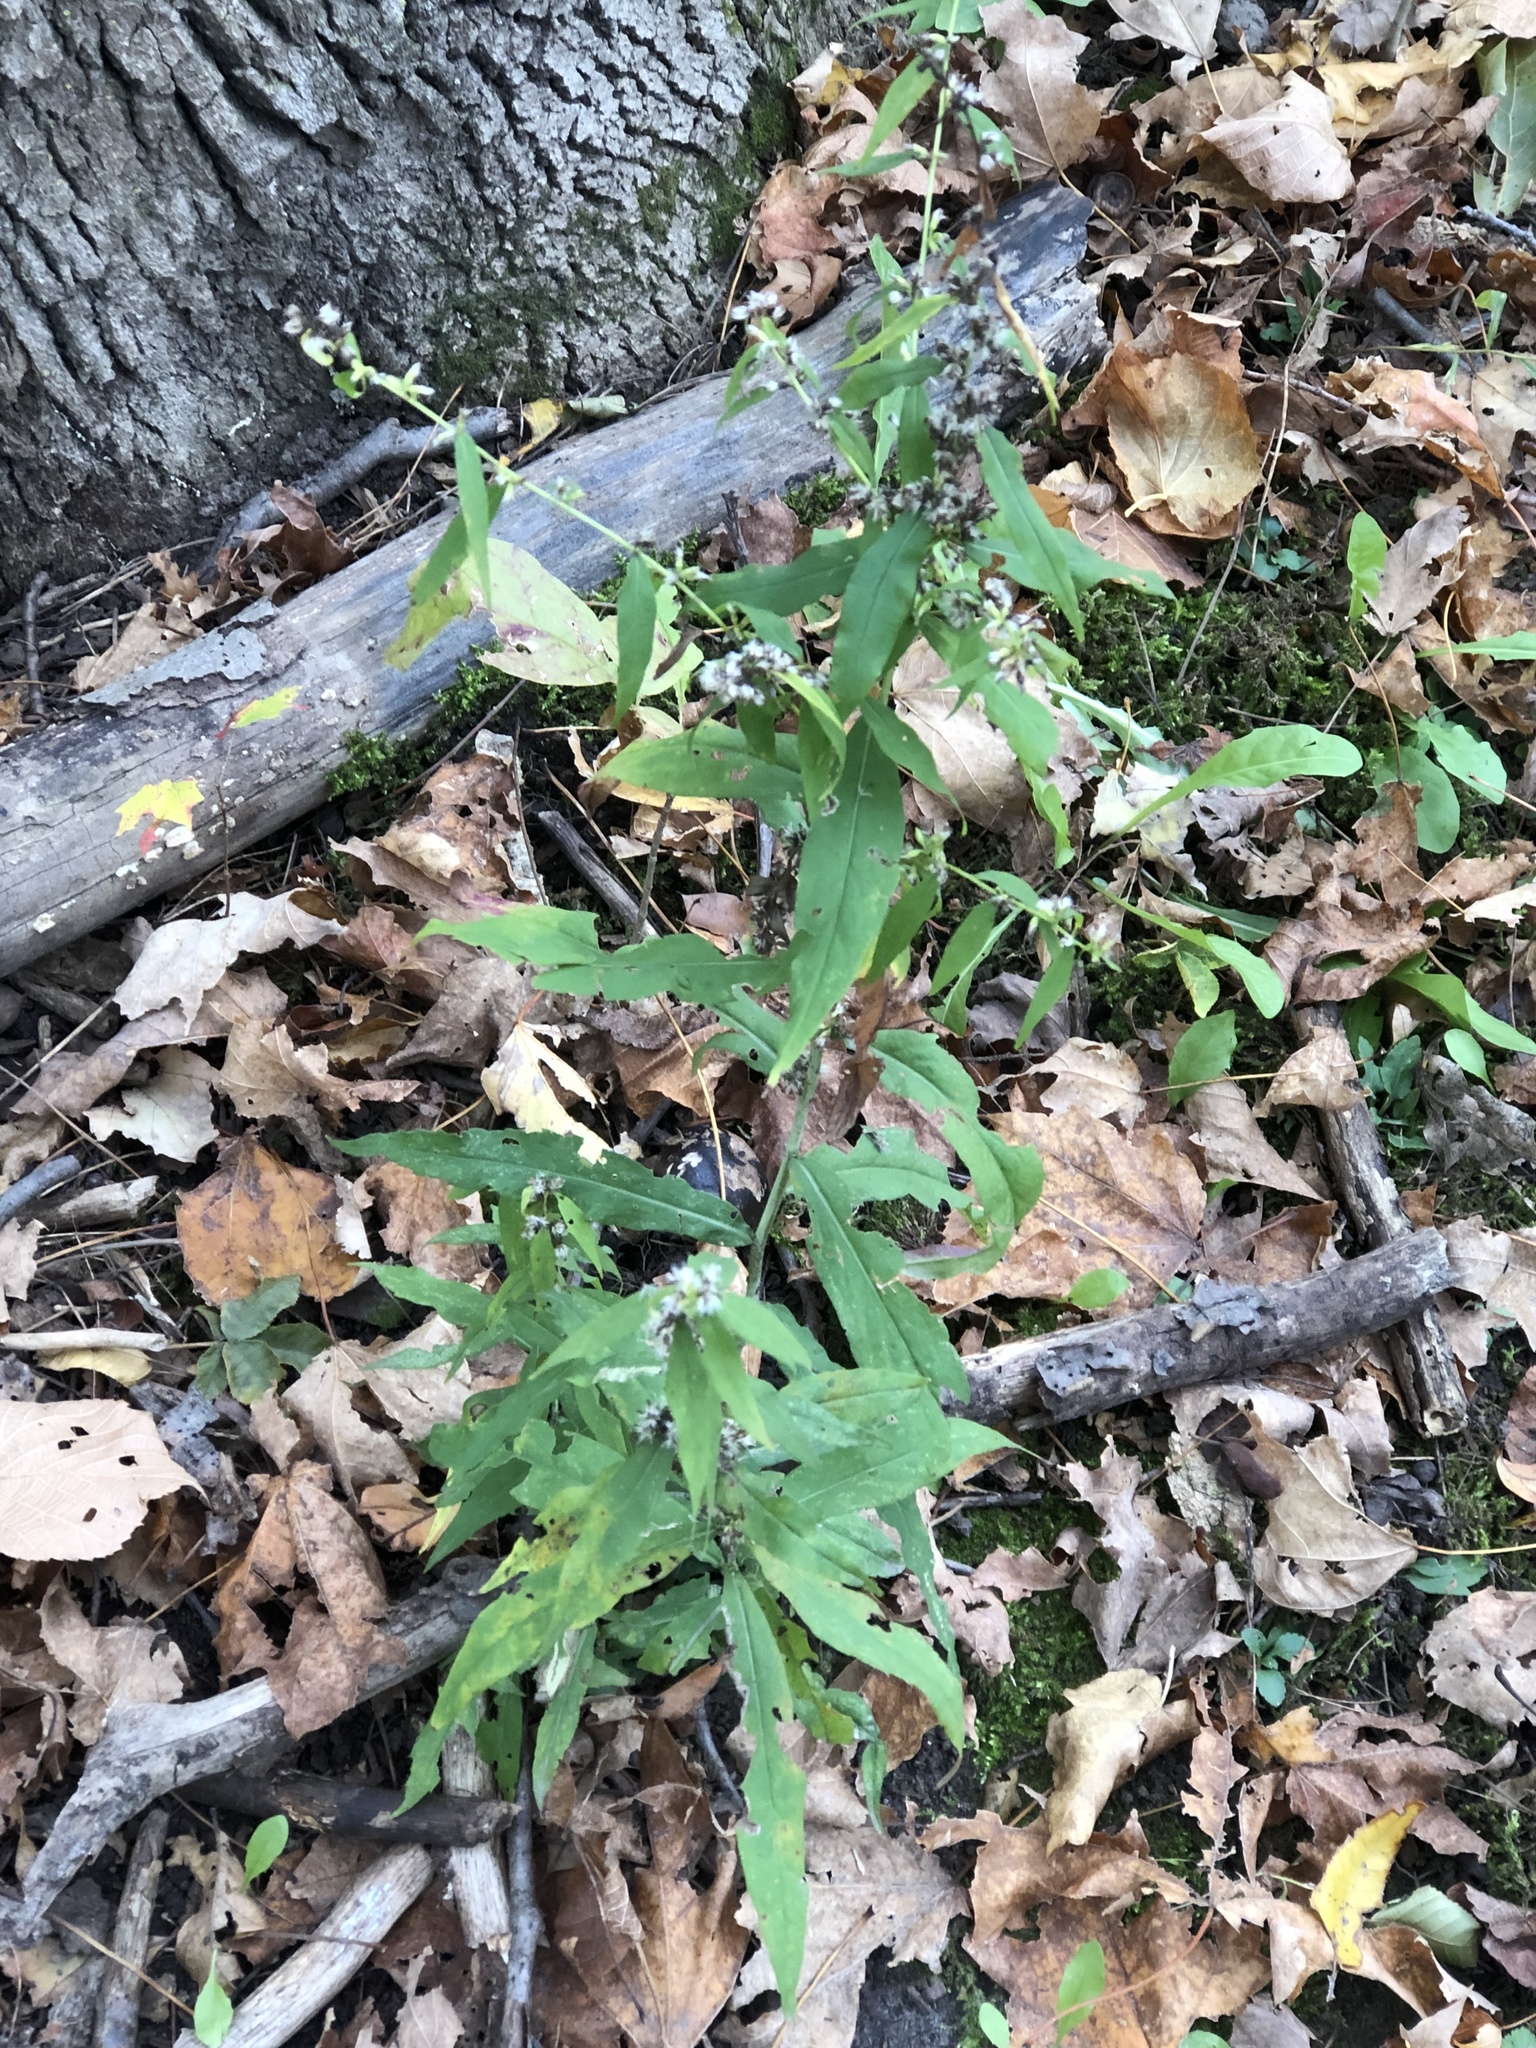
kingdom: Plantae
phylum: Tracheophyta
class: Magnoliopsida
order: Asterales
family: Asteraceae
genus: Solidago
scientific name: Solidago caesia
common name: Woodland goldenrod
